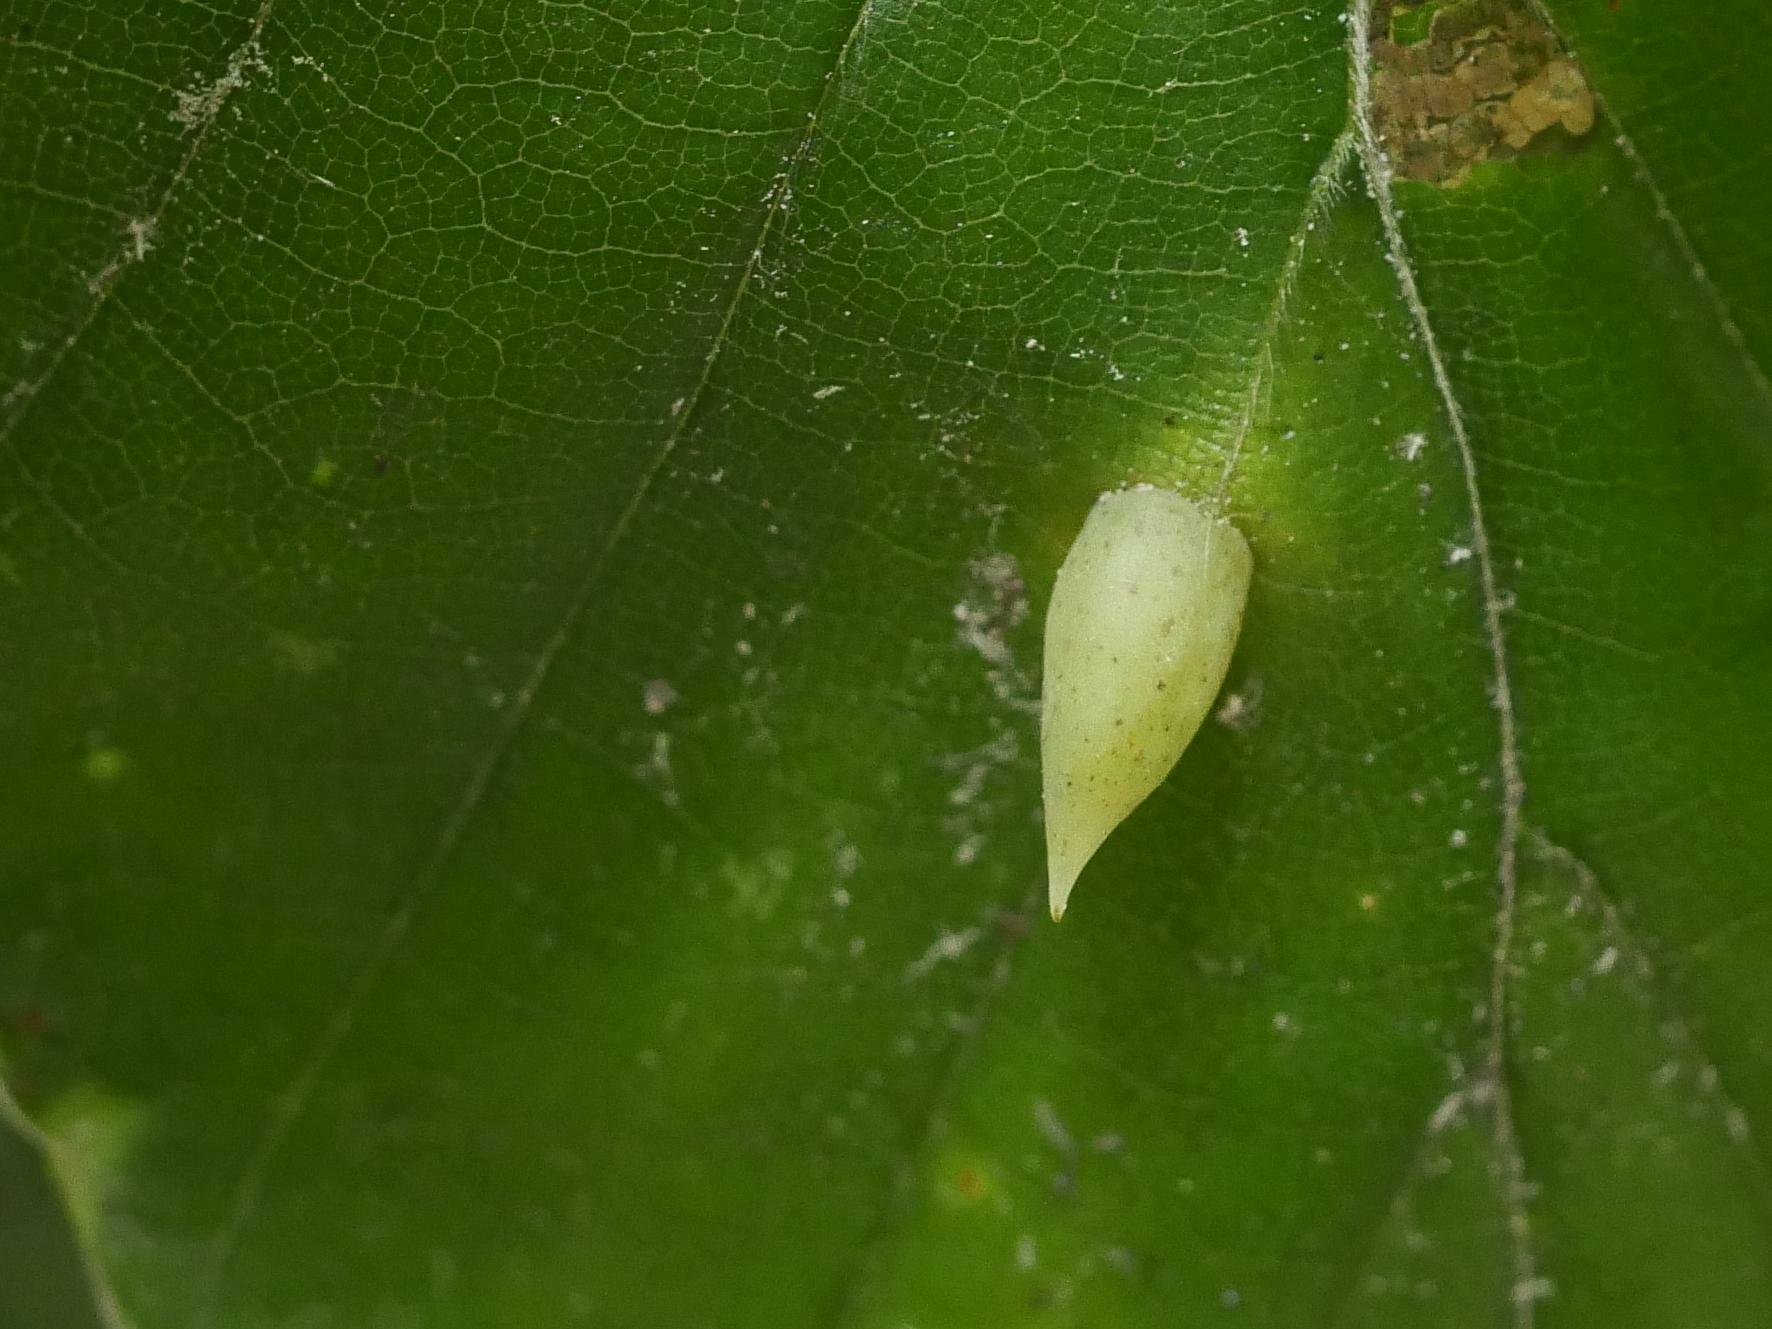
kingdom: Animalia
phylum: Arthropoda
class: Insecta
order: Diptera
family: Cecidomyiidae
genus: Mikiola
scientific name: Mikiola fagi
